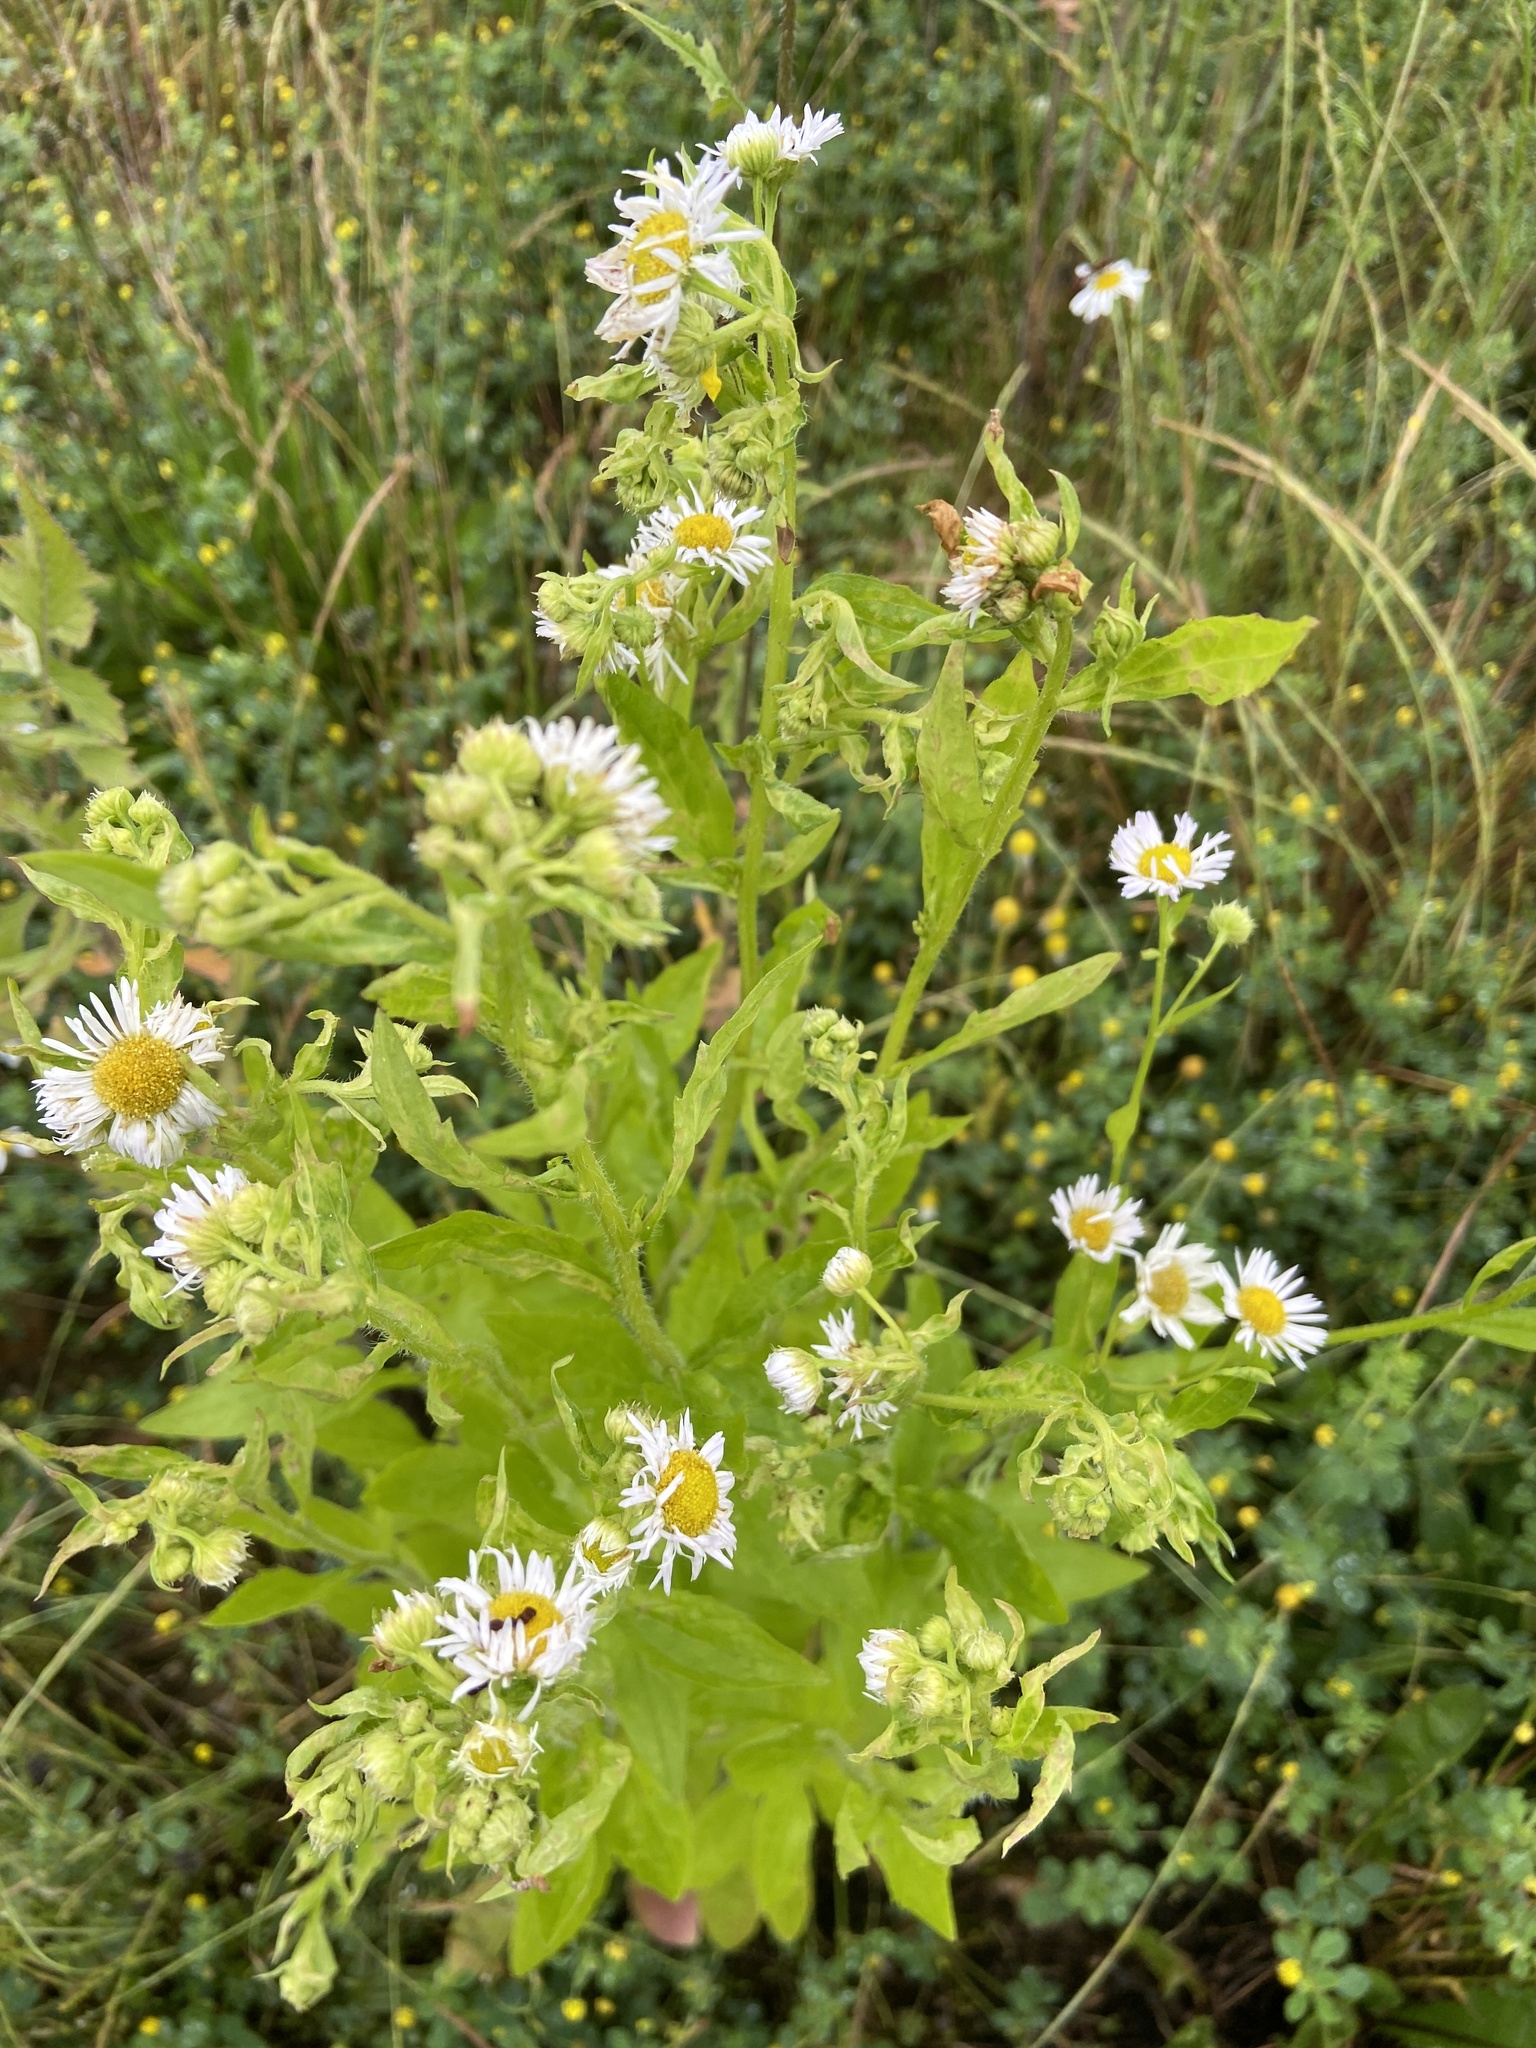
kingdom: Plantae
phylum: Tracheophyta
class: Magnoliopsida
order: Asterales
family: Asteraceae
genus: Erigeron
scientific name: Erigeron annuus
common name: Tall fleabane
